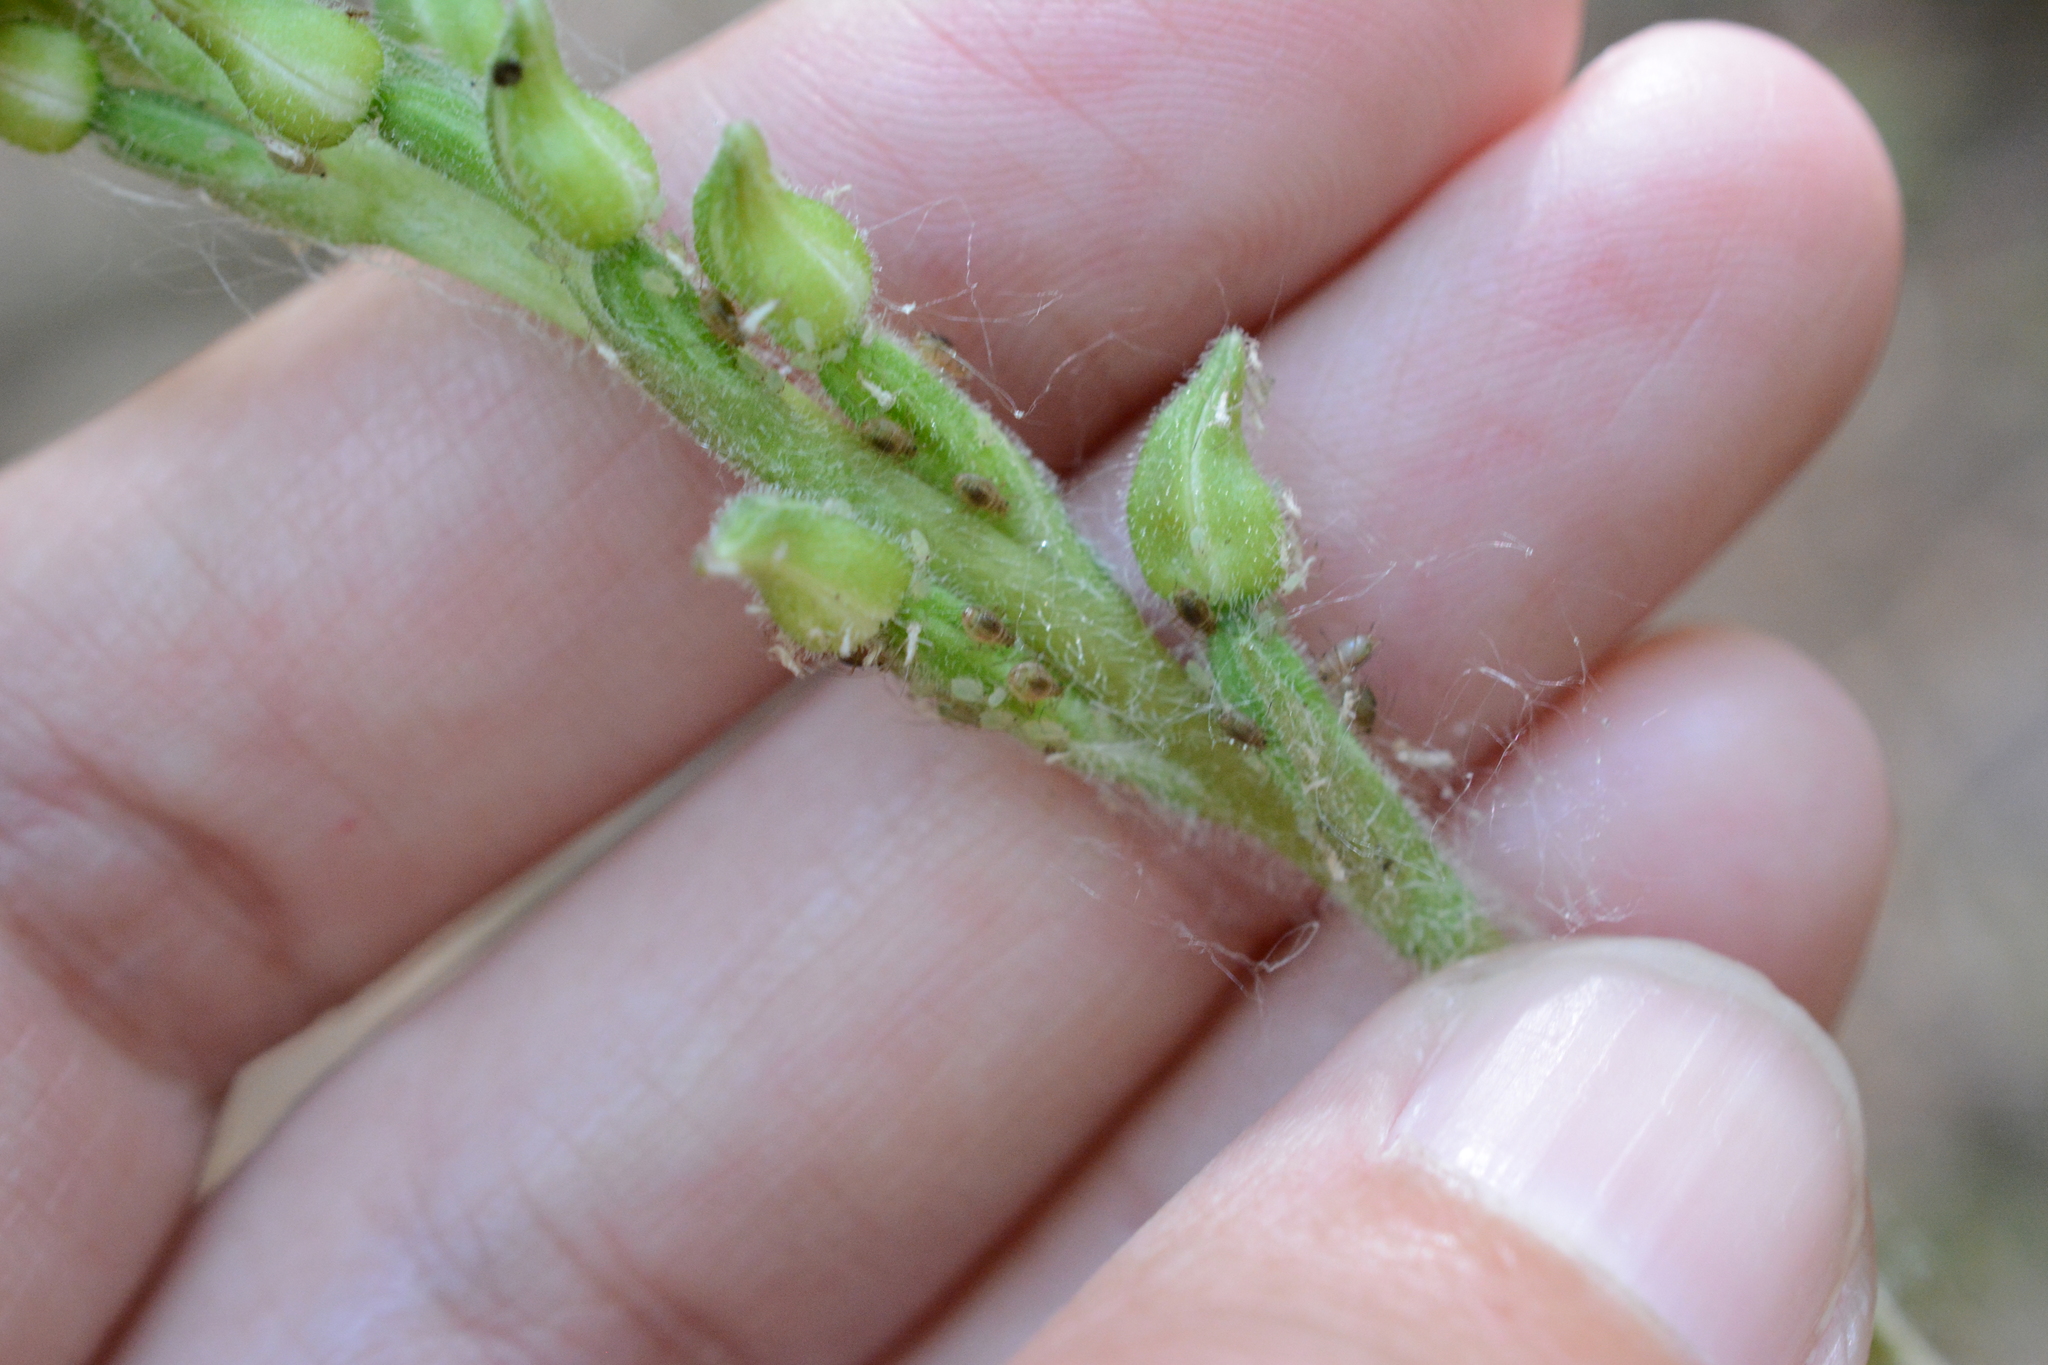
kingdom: Plantae
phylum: Tracheophyta
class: Liliopsida
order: Asparagales
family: Orchidaceae
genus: Goodyera
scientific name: Goodyera oblongifolia
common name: Giant rattlesnake-plantain
